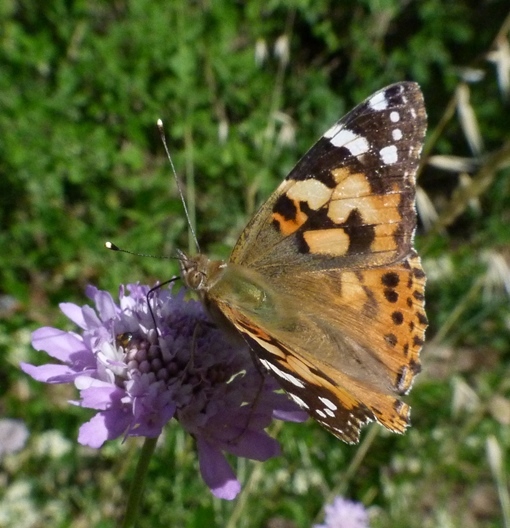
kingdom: Animalia
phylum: Arthropoda
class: Insecta
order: Lepidoptera
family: Nymphalidae
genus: Vanessa
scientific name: Vanessa cardui
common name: Painted lady
